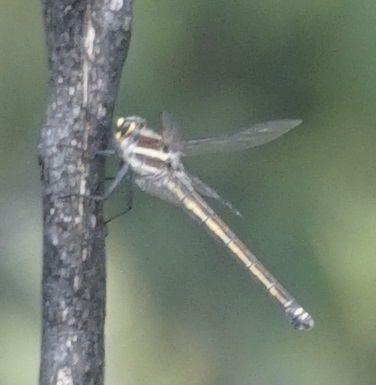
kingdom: Animalia
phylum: Arthropoda
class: Insecta
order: Odonata
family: Petaluridae
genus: Petalura
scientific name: Petalura gigantea
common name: South-eastern petaltail
